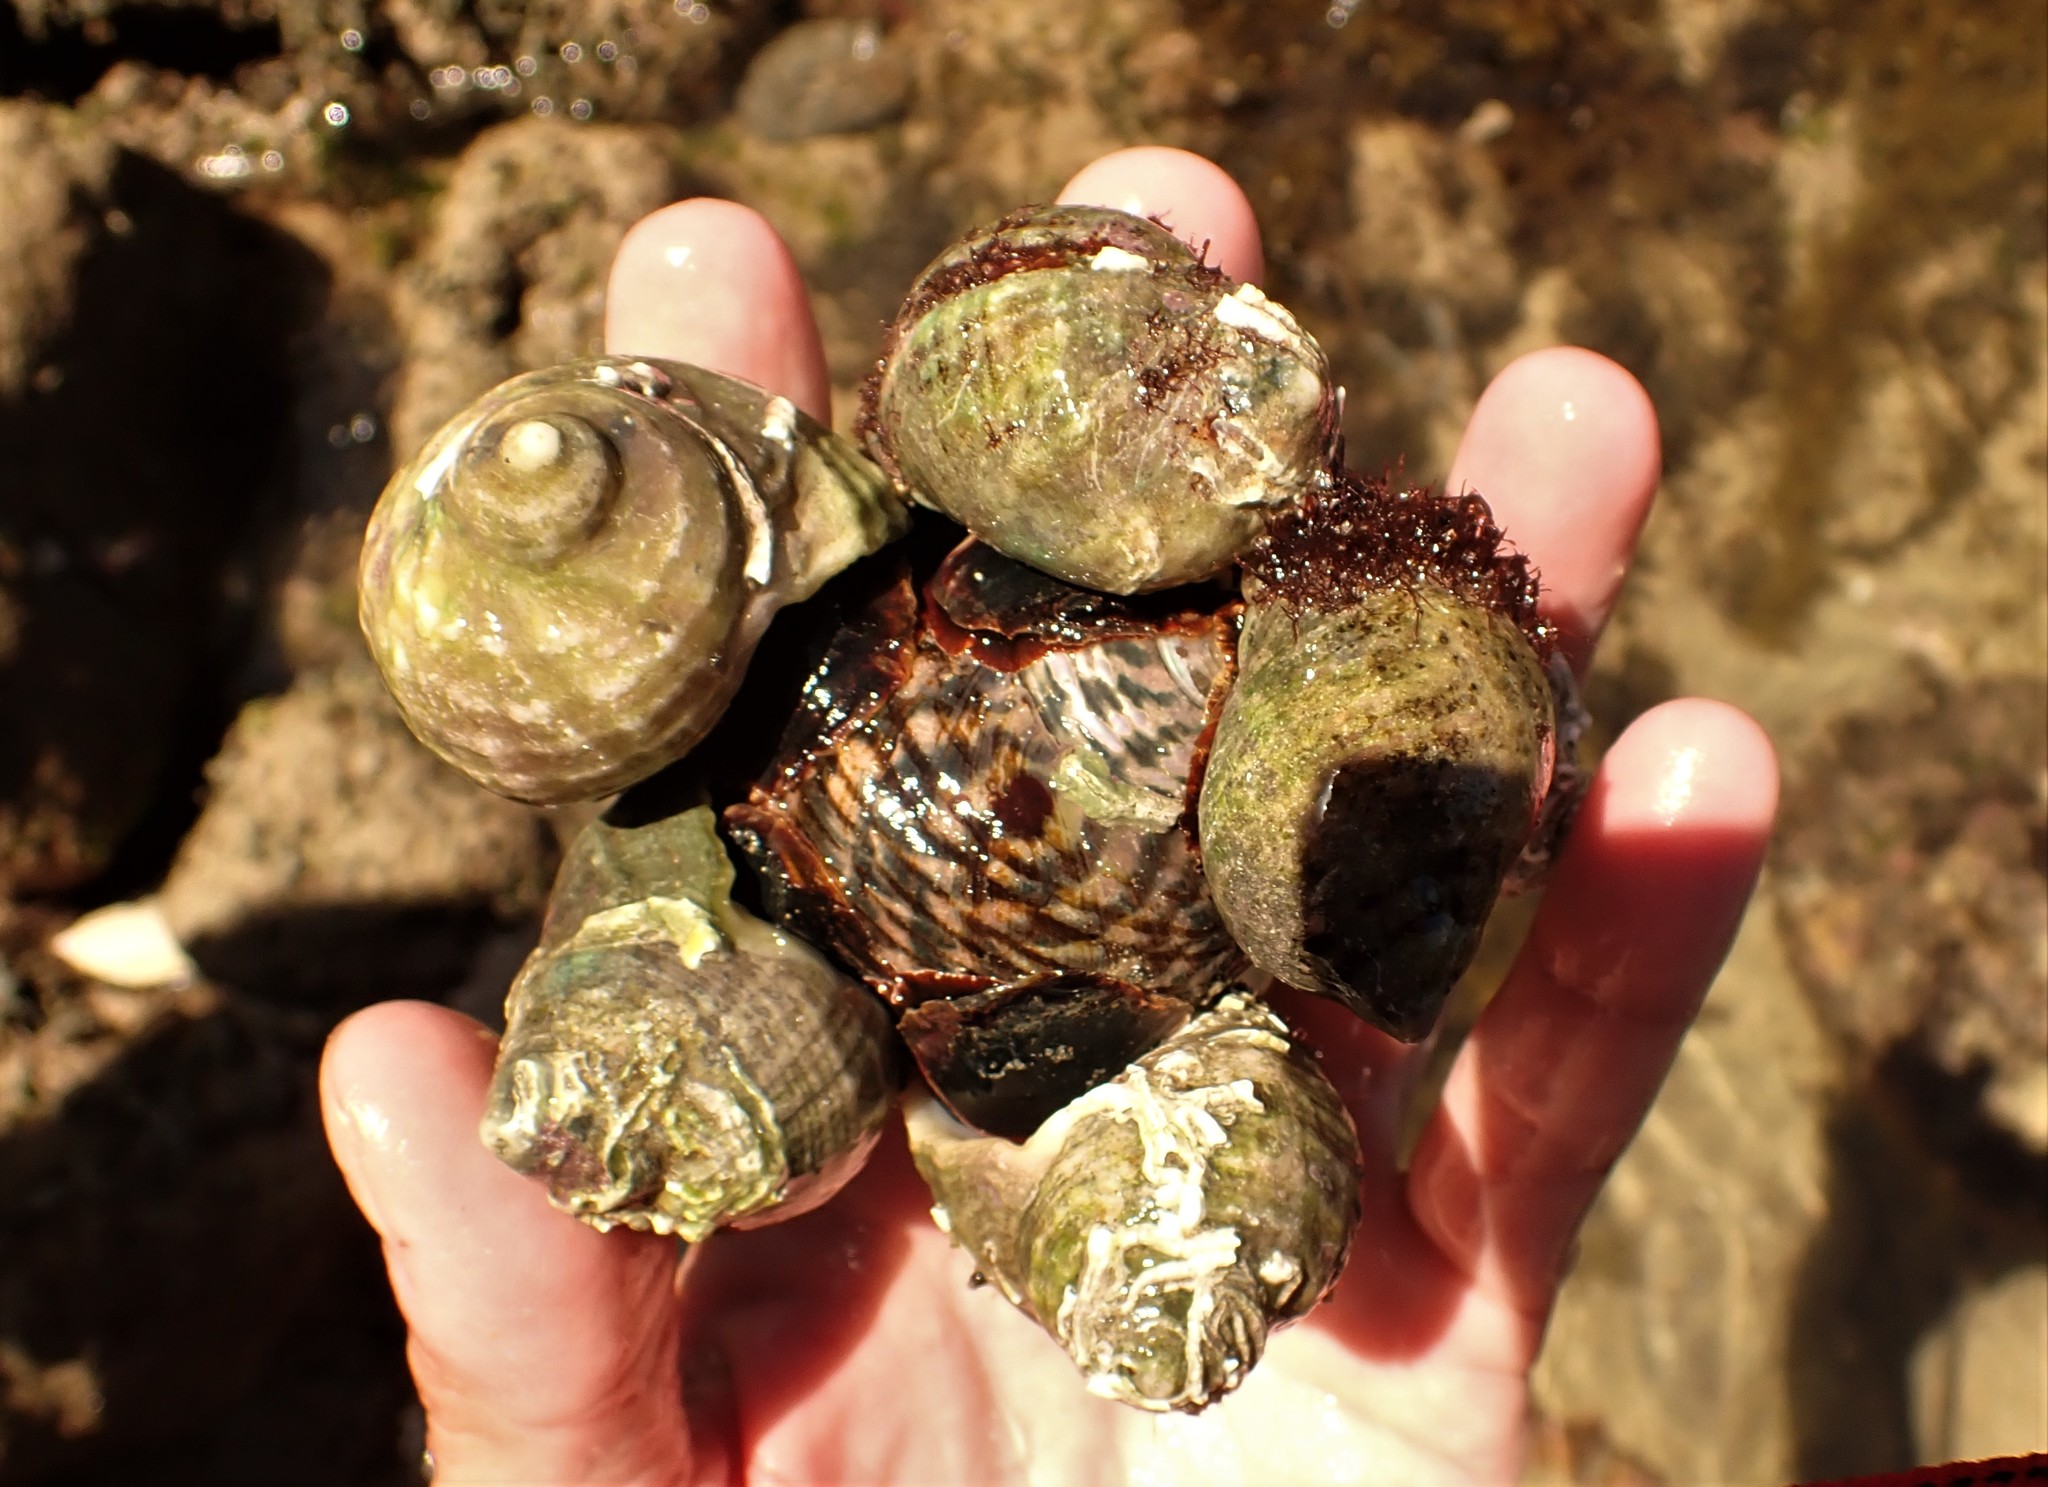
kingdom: Animalia
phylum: Mollusca
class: Gastropoda
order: Trochida
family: Turbinidae
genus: Lunella
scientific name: Lunella undulata
